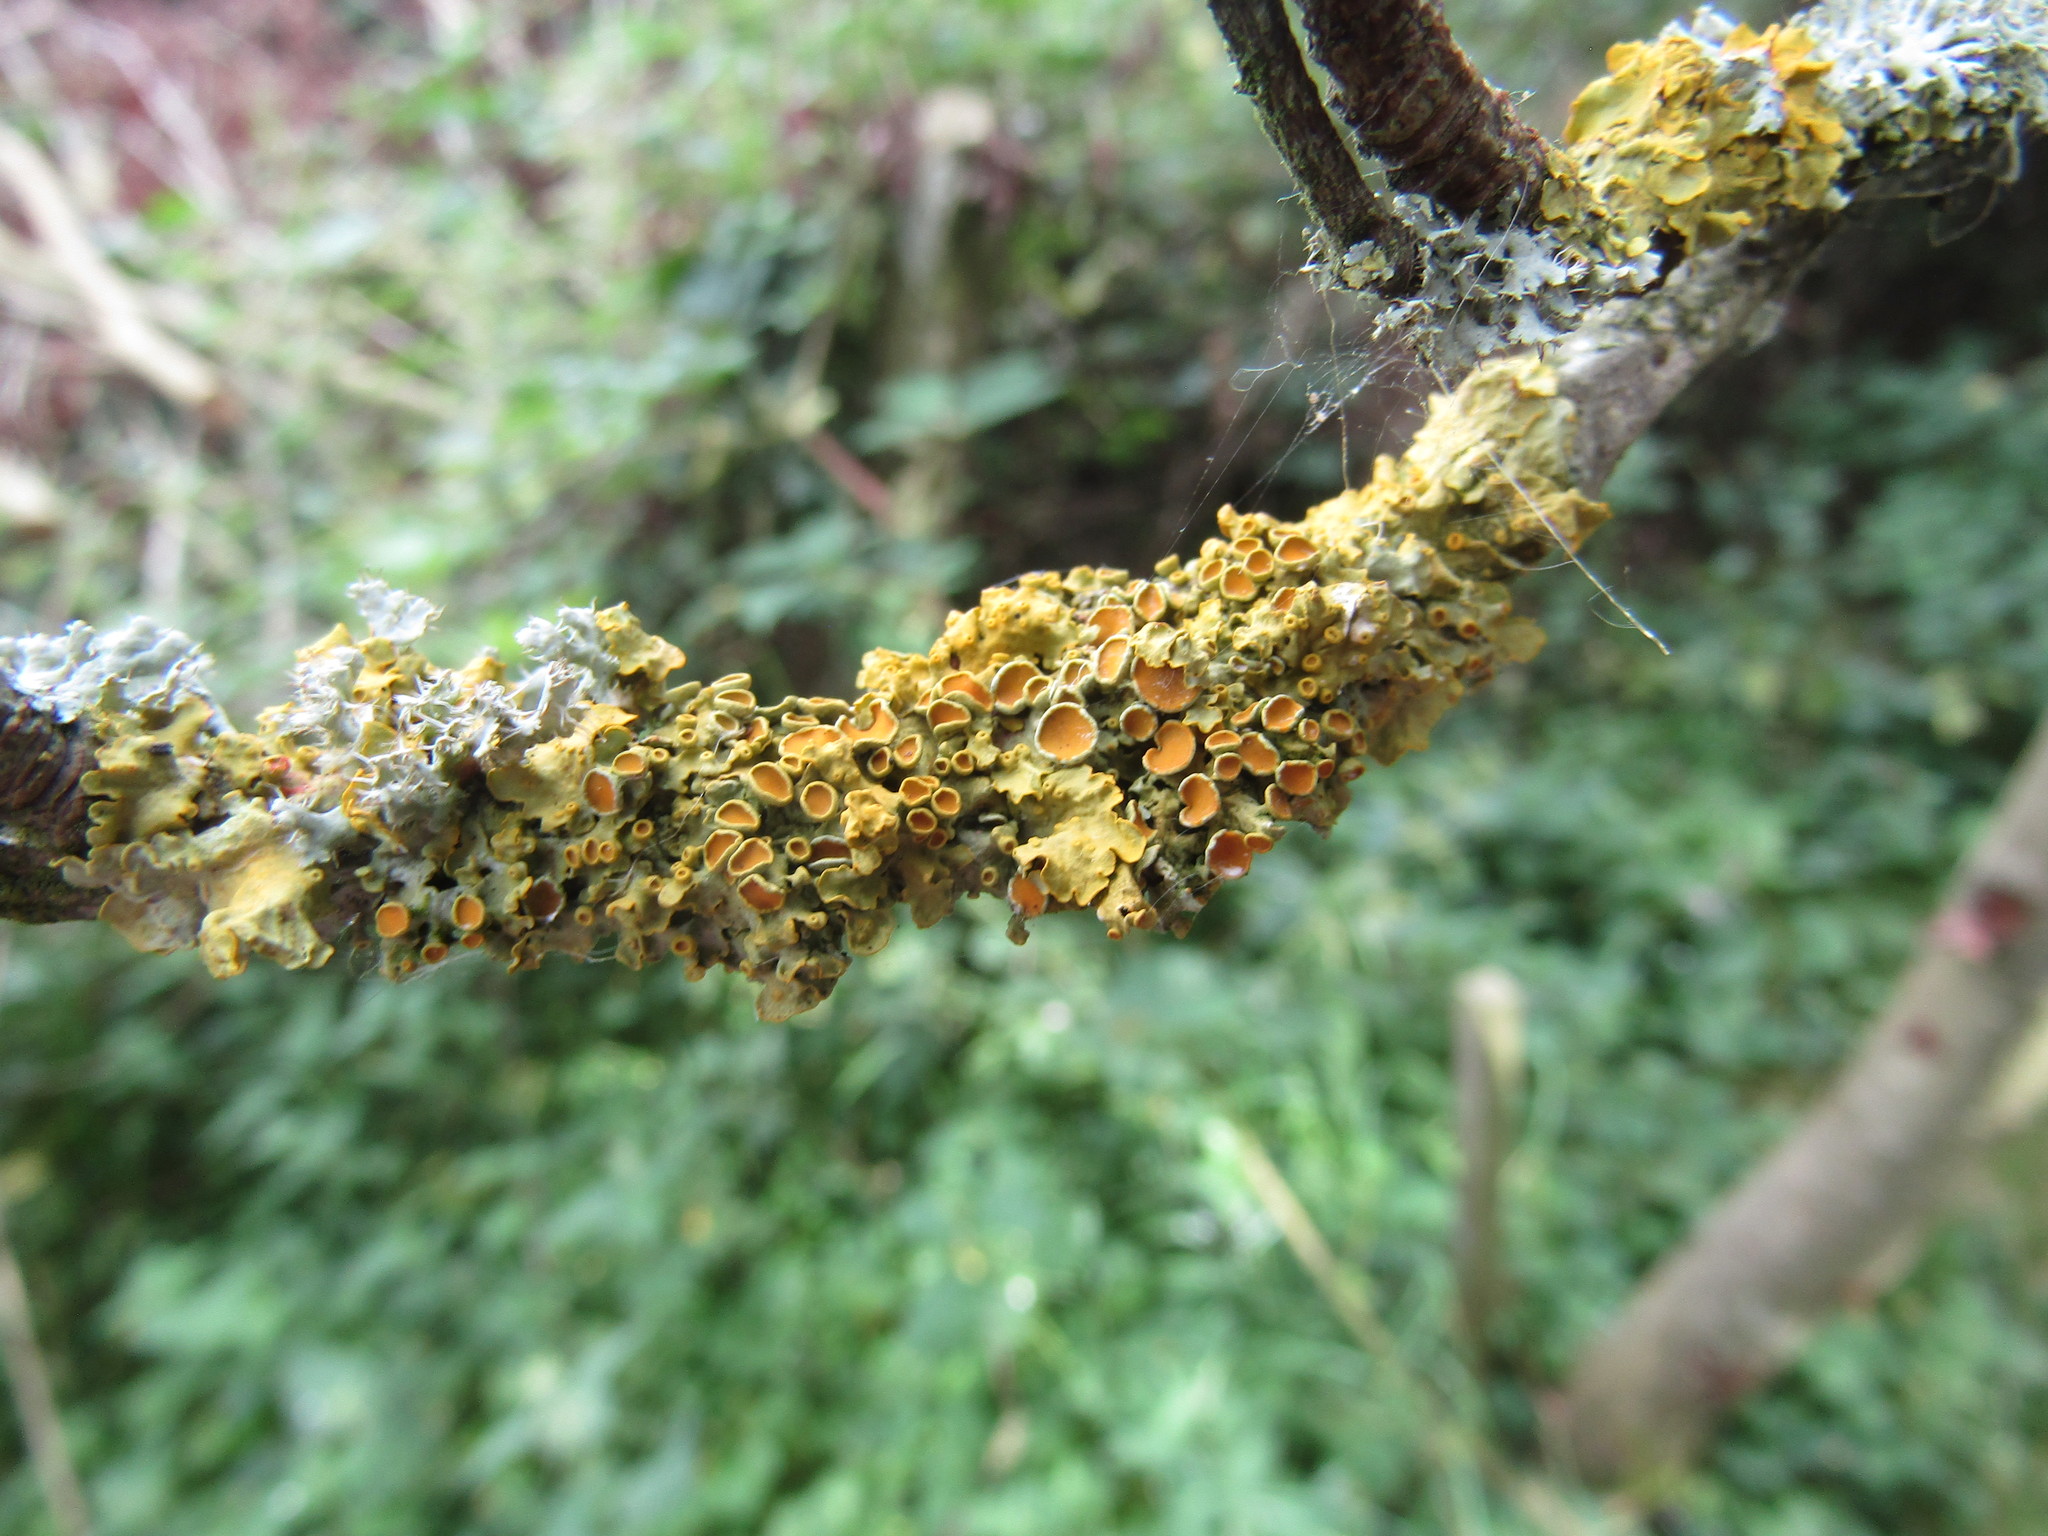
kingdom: Fungi
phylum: Ascomycota
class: Lecanoromycetes
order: Teloschistales
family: Teloschistaceae
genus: Xanthoria
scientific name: Xanthoria parietina
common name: Common orange lichen
